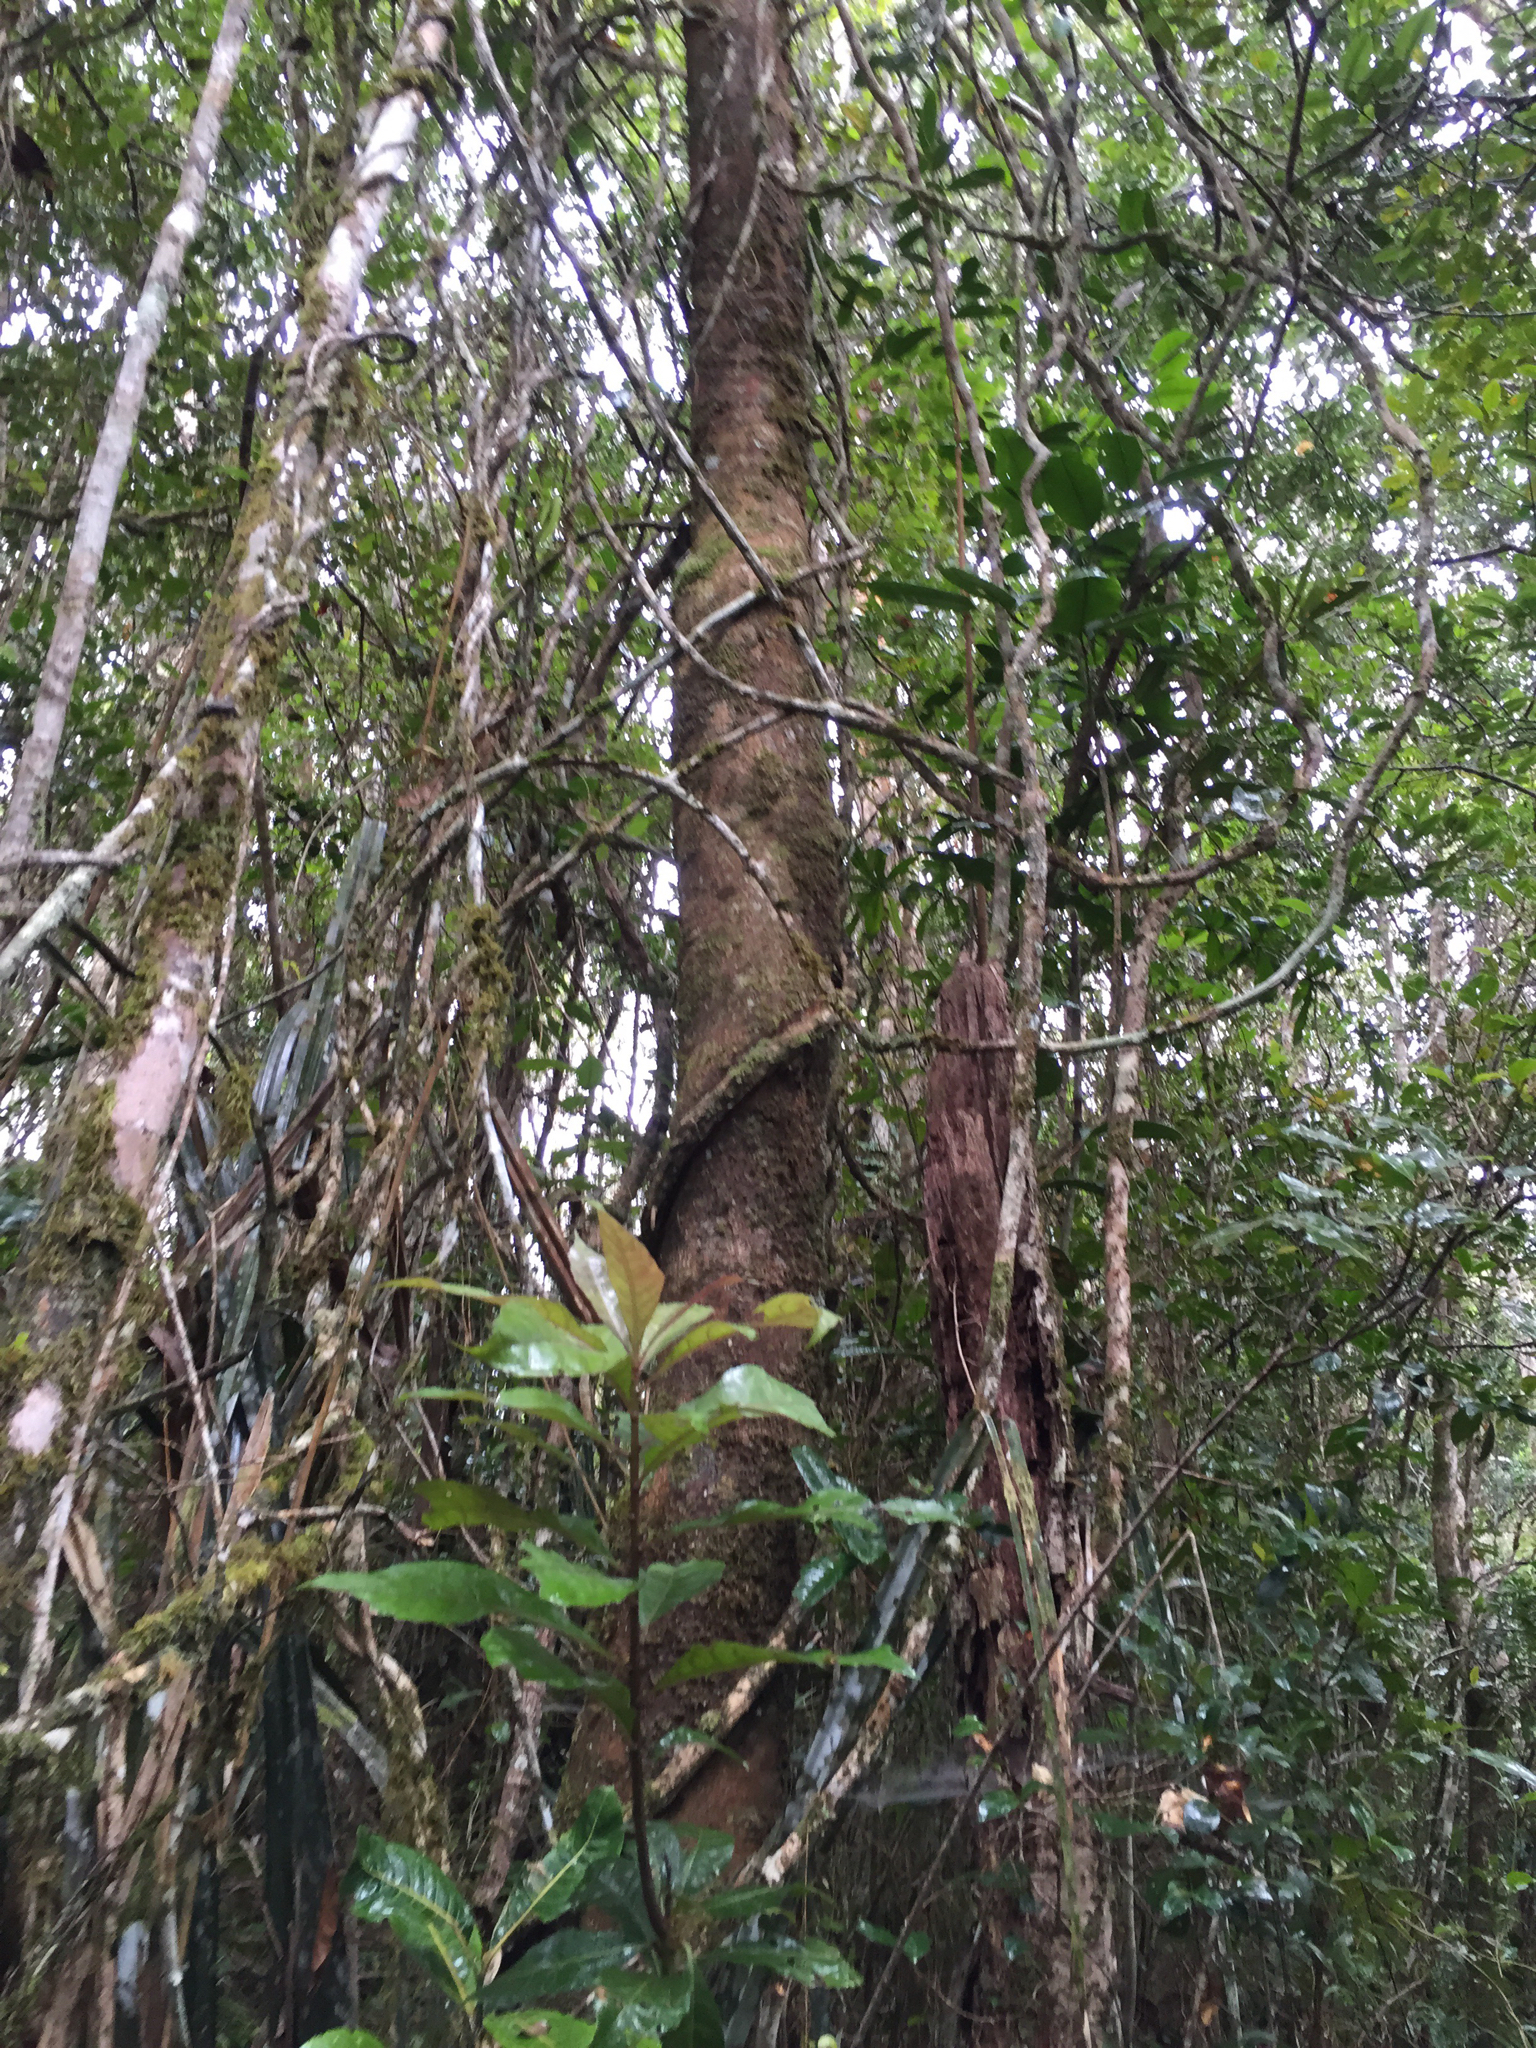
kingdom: Plantae
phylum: Tracheophyta
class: Magnoliopsida
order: Malpighiales
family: Rhizophoraceae
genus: Carallia
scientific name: Carallia brachiata
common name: Carallawood
